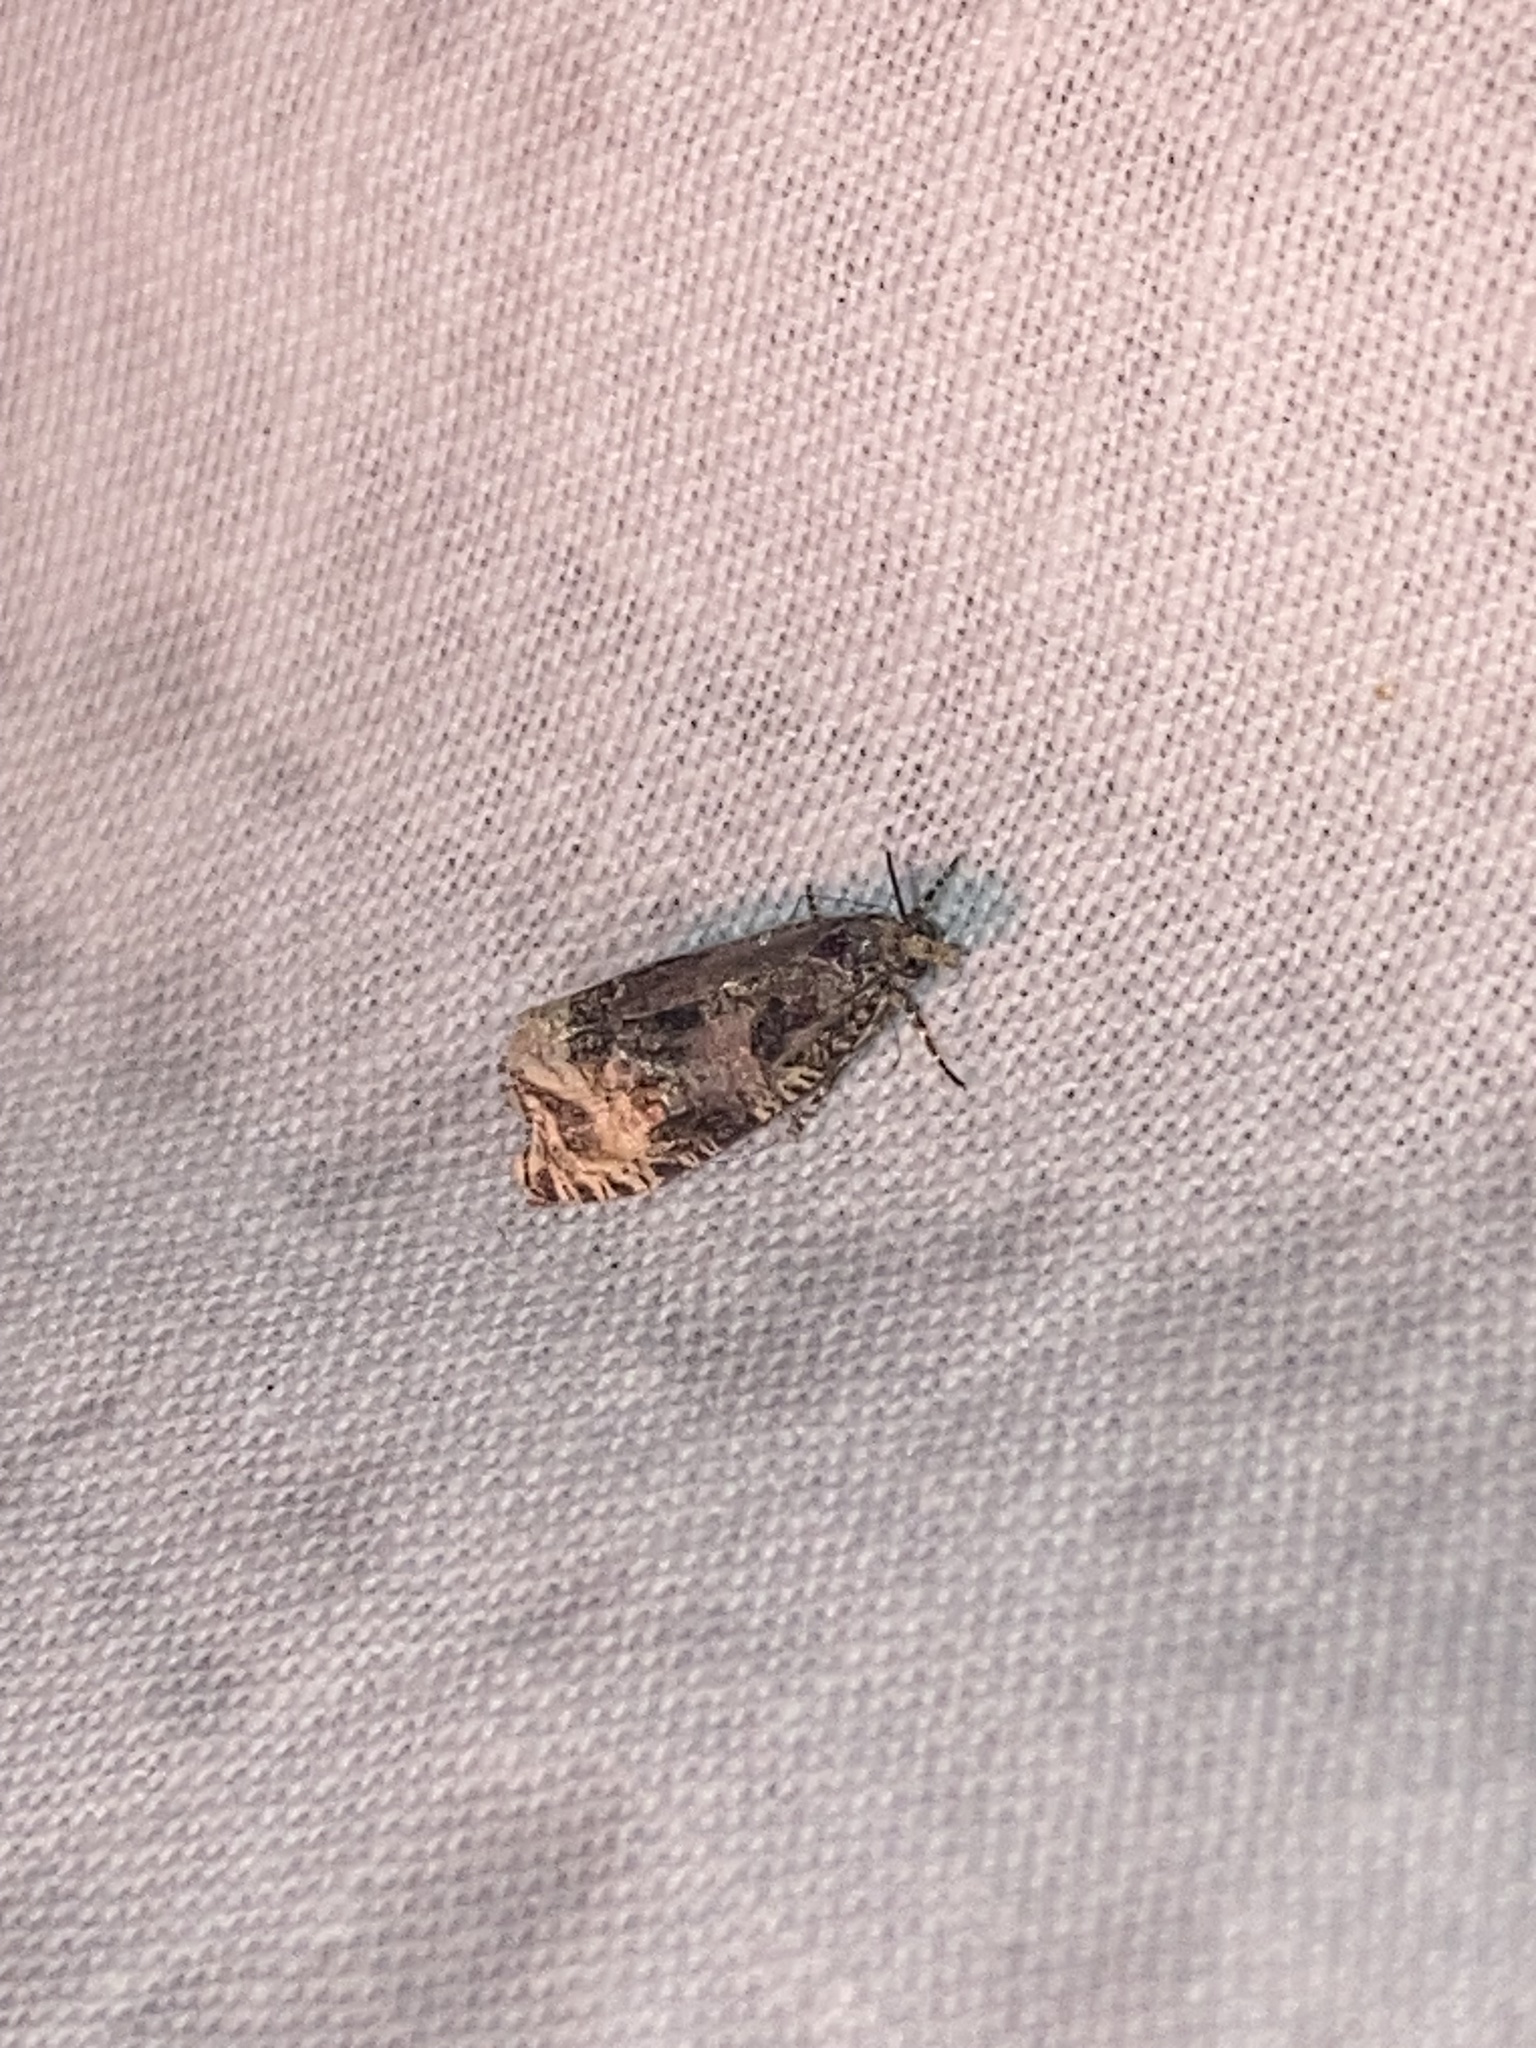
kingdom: Animalia
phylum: Arthropoda
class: Insecta
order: Lepidoptera
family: Tortricidae
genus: Syricoris
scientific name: Syricoris lacunana
